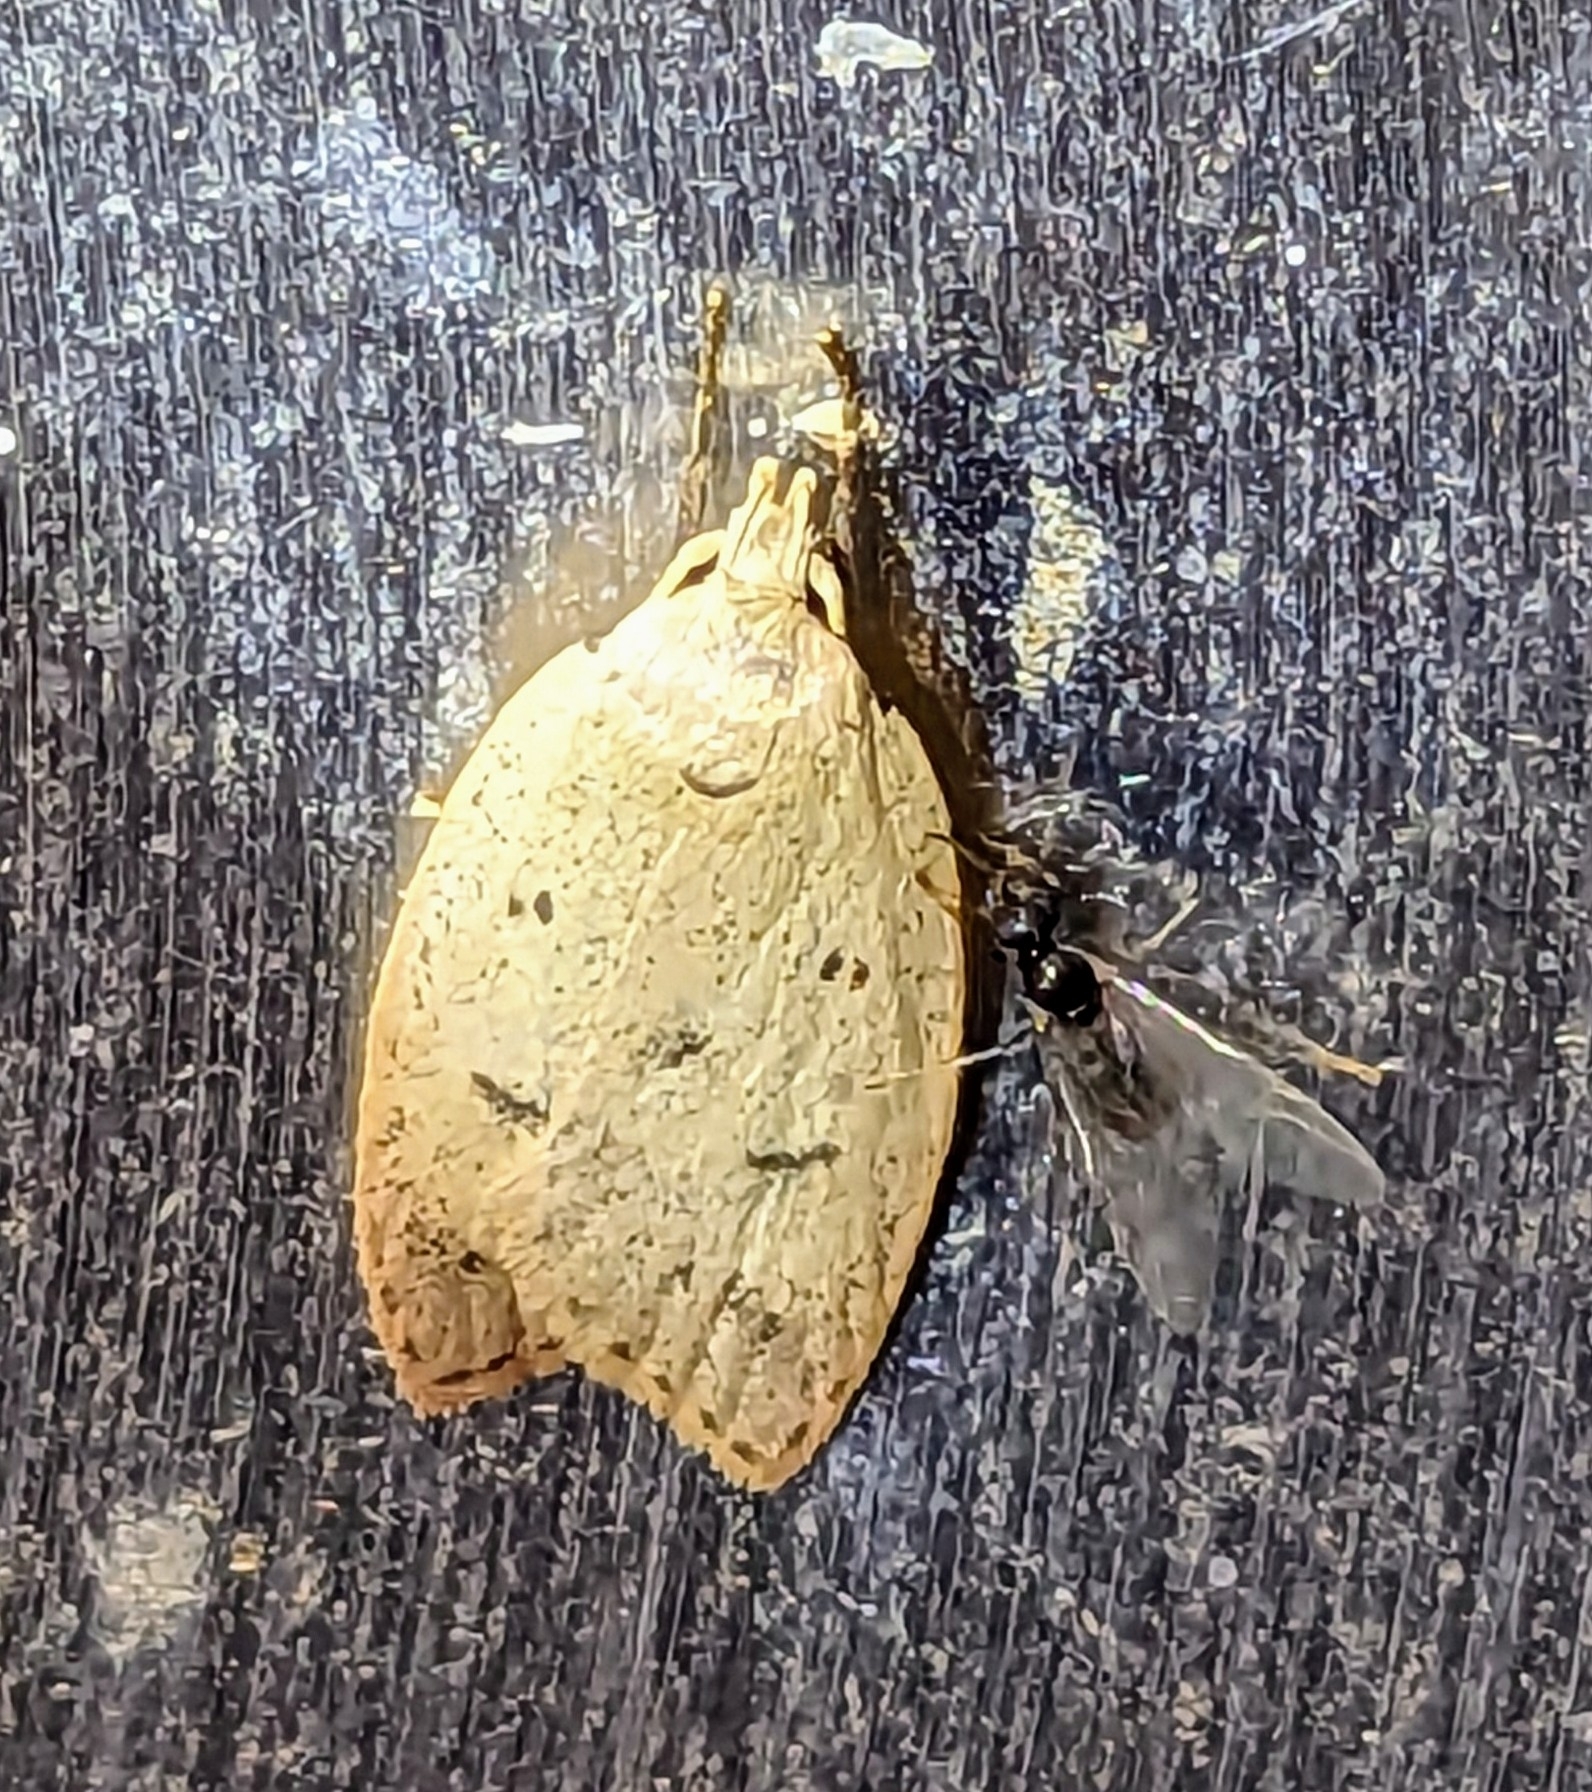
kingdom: Animalia
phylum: Arthropoda
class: Insecta
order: Lepidoptera
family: Peleopodidae
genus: Machimia
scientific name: Machimia tentoriferella
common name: Gold-striped leaftier moth
